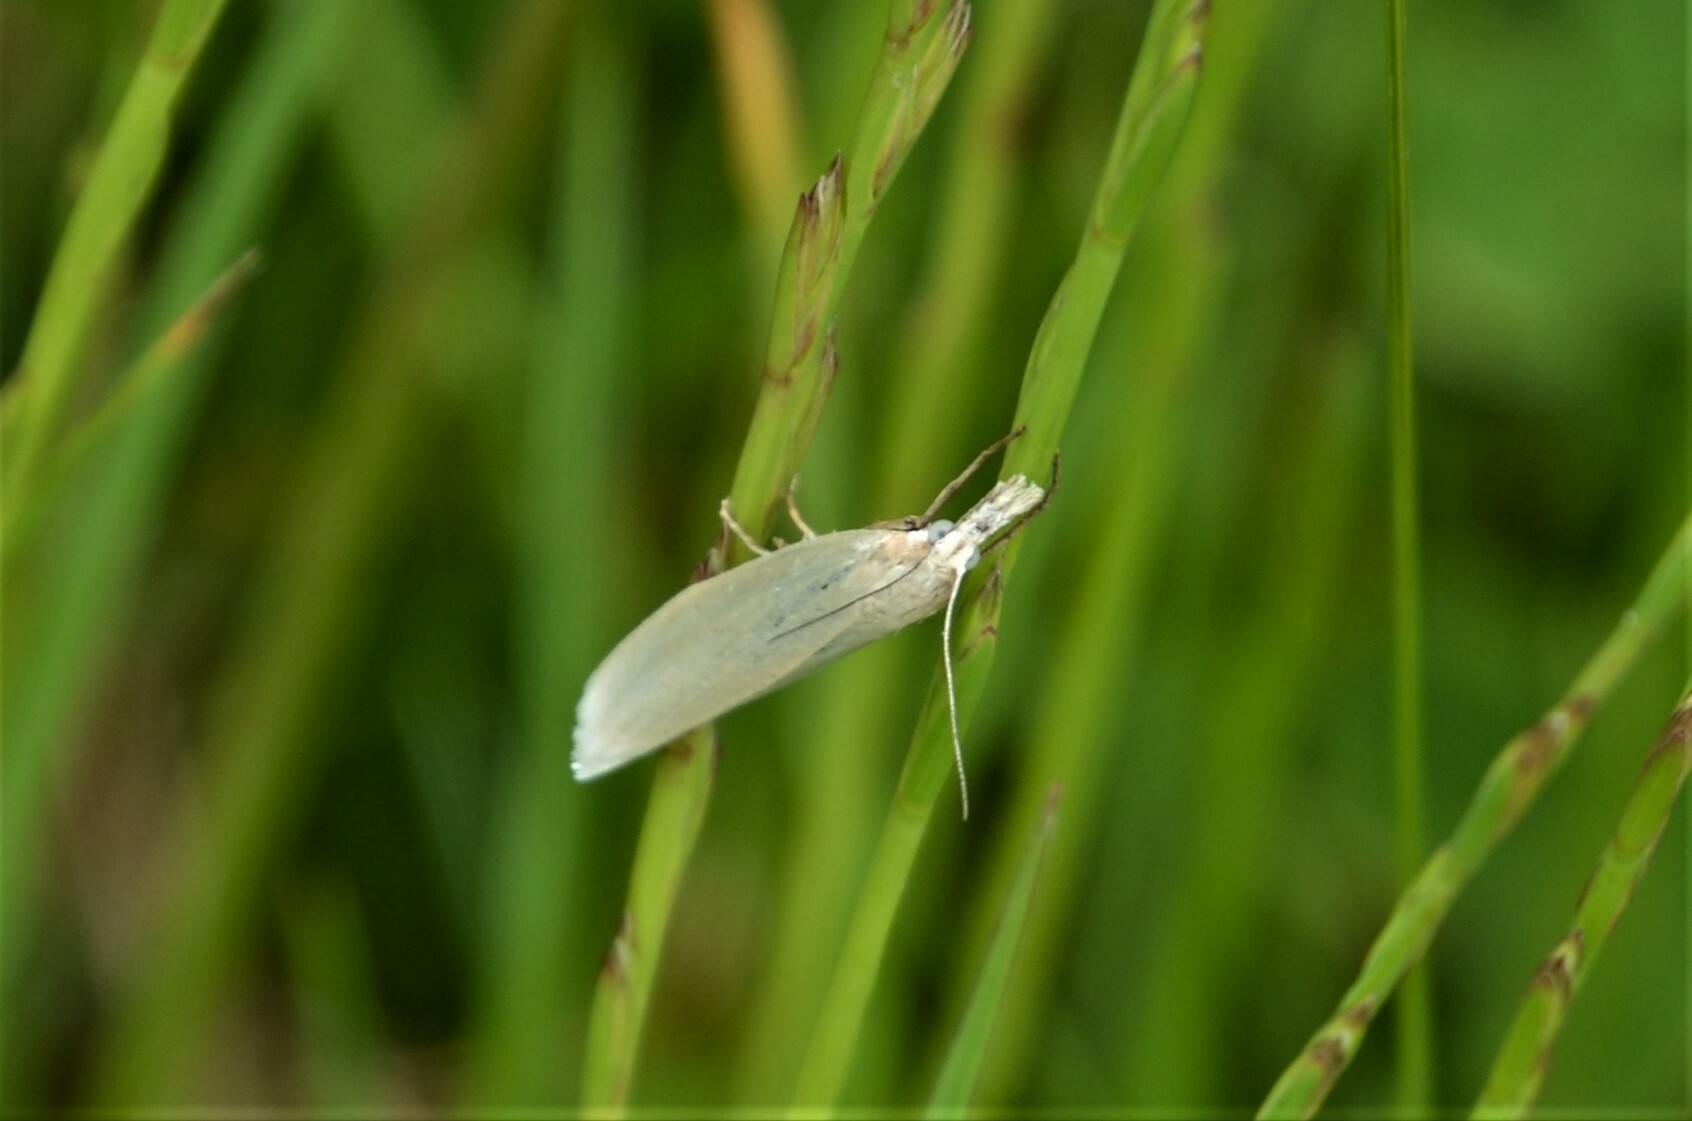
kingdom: Animalia
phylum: Arthropoda
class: Insecta
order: Lepidoptera
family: Crambidae
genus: Crambus
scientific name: Crambus perlellus
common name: Yellow satin veneer
